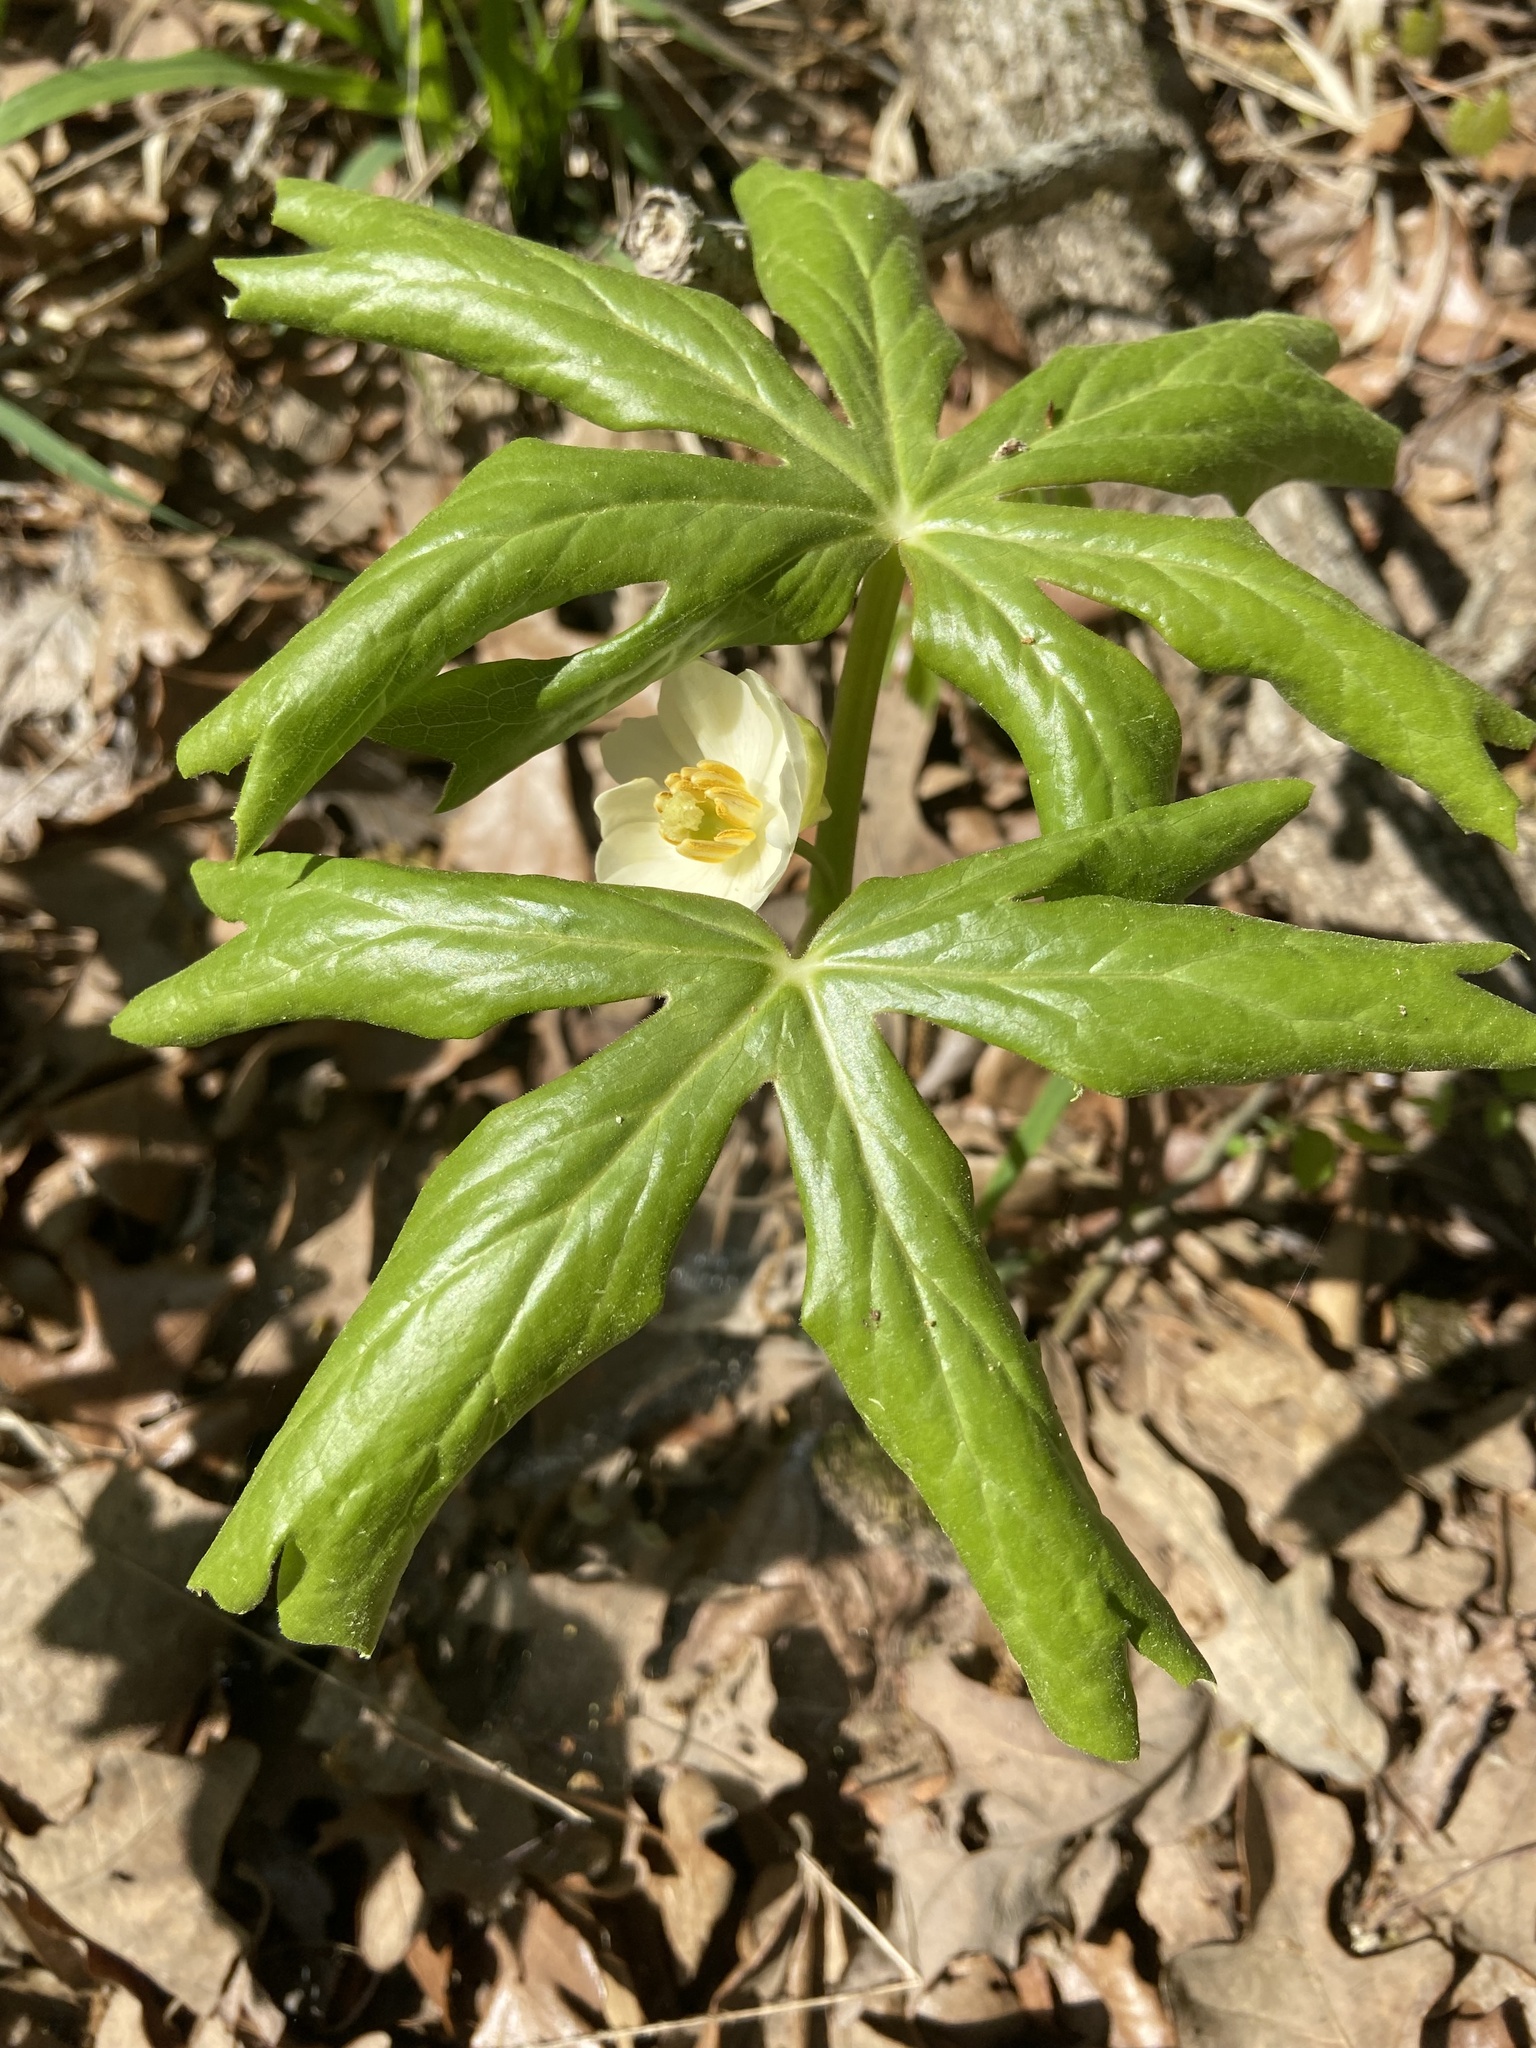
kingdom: Plantae
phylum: Tracheophyta
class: Magnoliopsida
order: Ranunculales
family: Berberidaceae
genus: Podophyllum
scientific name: Podophyllum peltatum
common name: Wild mandrake
